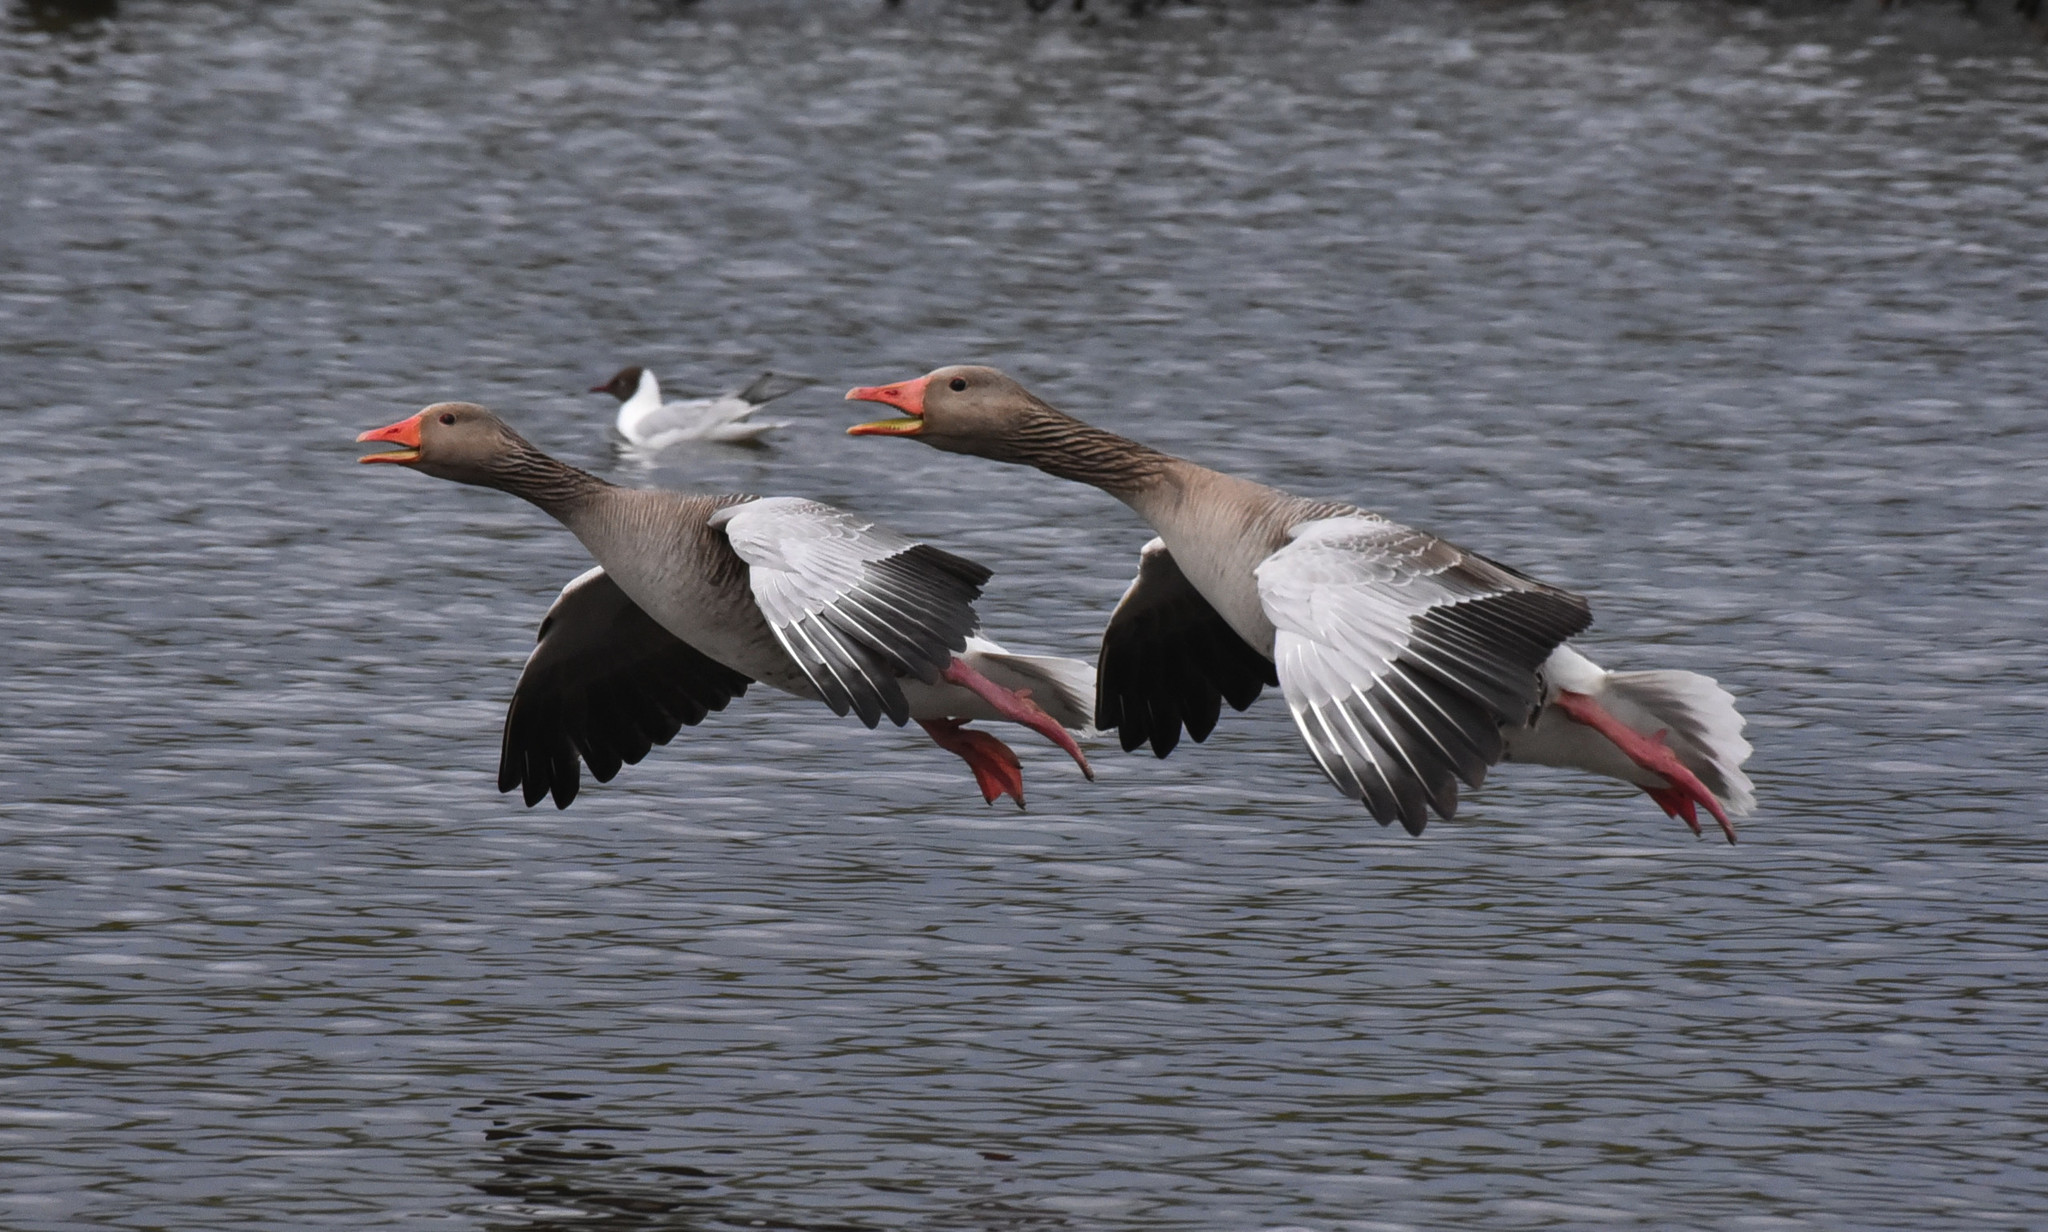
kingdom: Animalia
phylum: Chordata
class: Aves
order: Anseriformes
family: Anatidae
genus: Anser
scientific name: Anser anser
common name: Greylag goose
